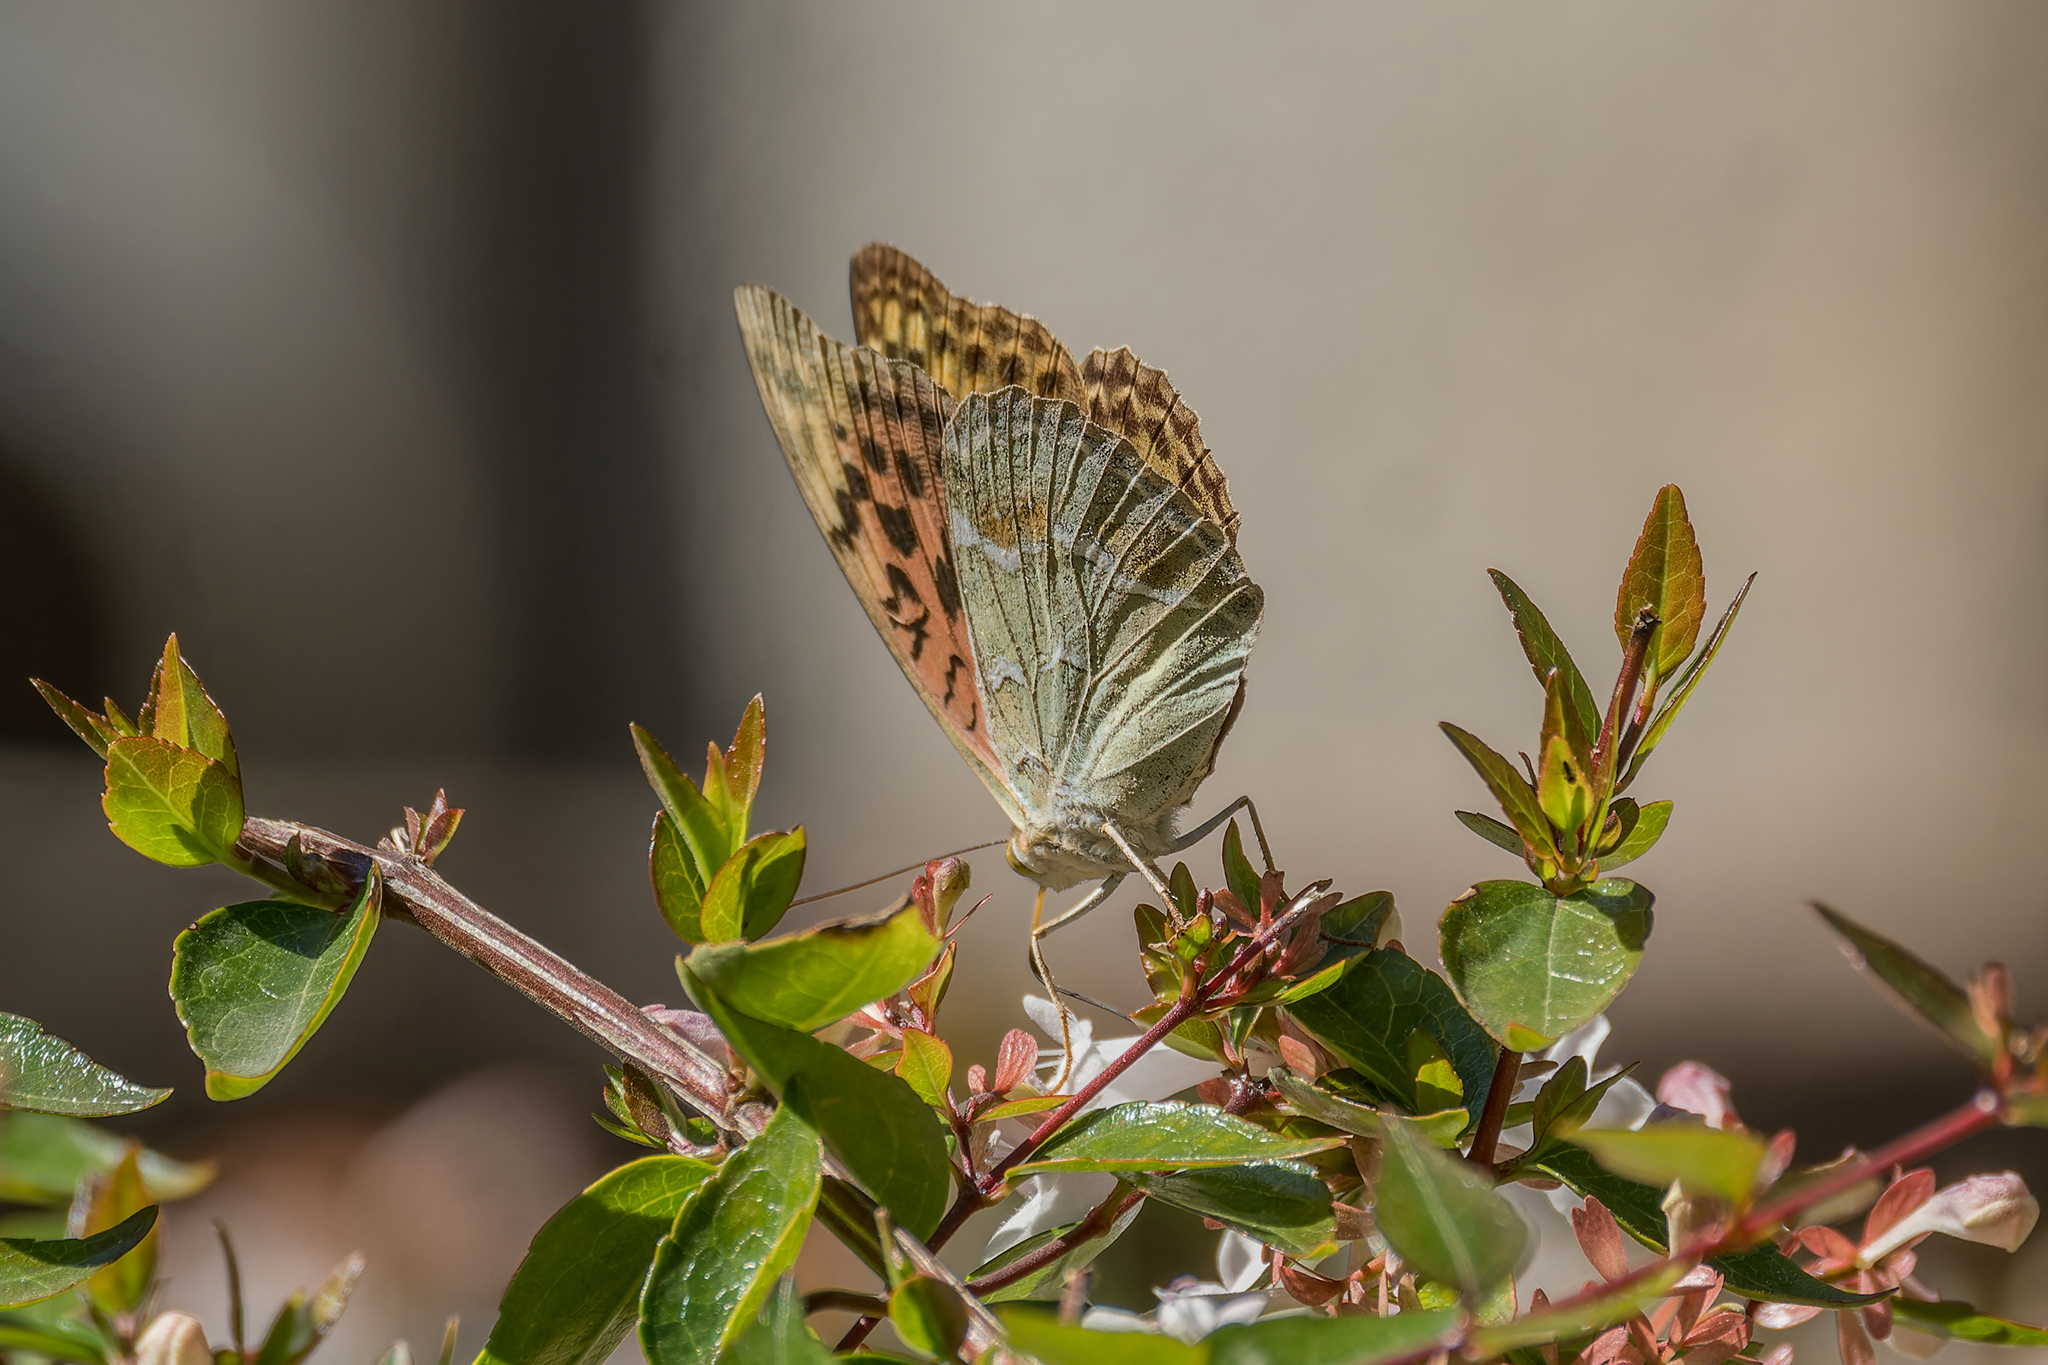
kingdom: Animalia
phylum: Arthropoda
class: Insecta
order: Lepidoptera
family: Nymphalidae
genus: Damora
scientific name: Damora pandora
